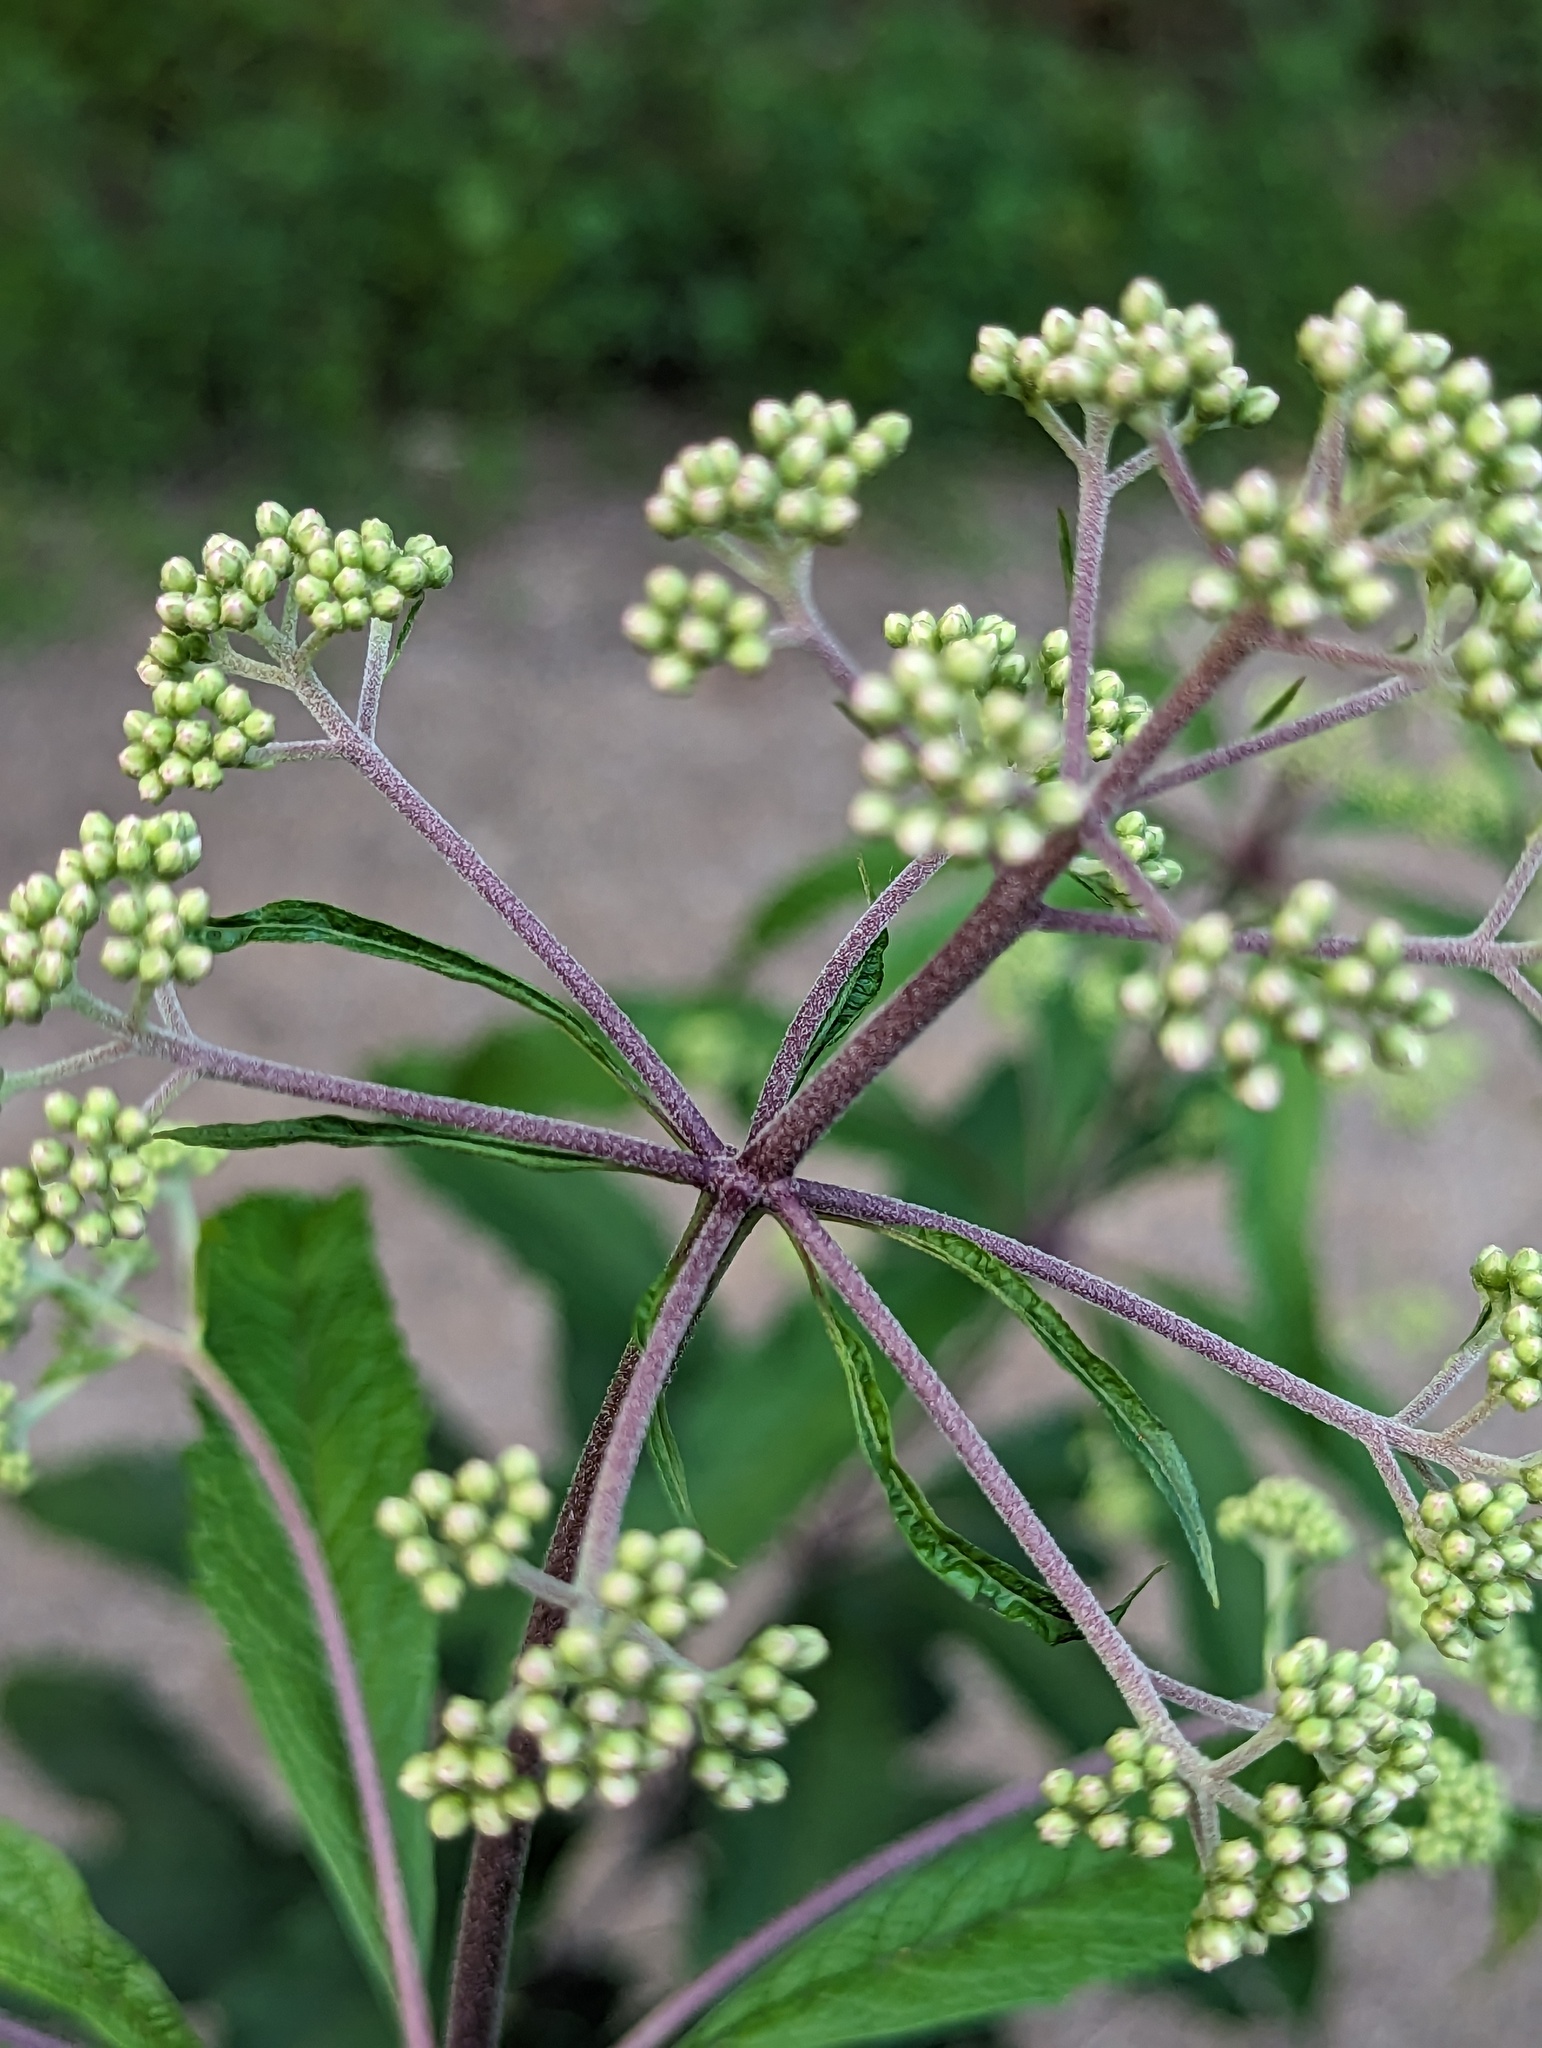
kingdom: Plantae
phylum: Tracheophyta
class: Magnoliopsida
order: Asterales
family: Asteraceae
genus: Eutrochium
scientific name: Eutrochium fistulosum
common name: Trumpetweed
